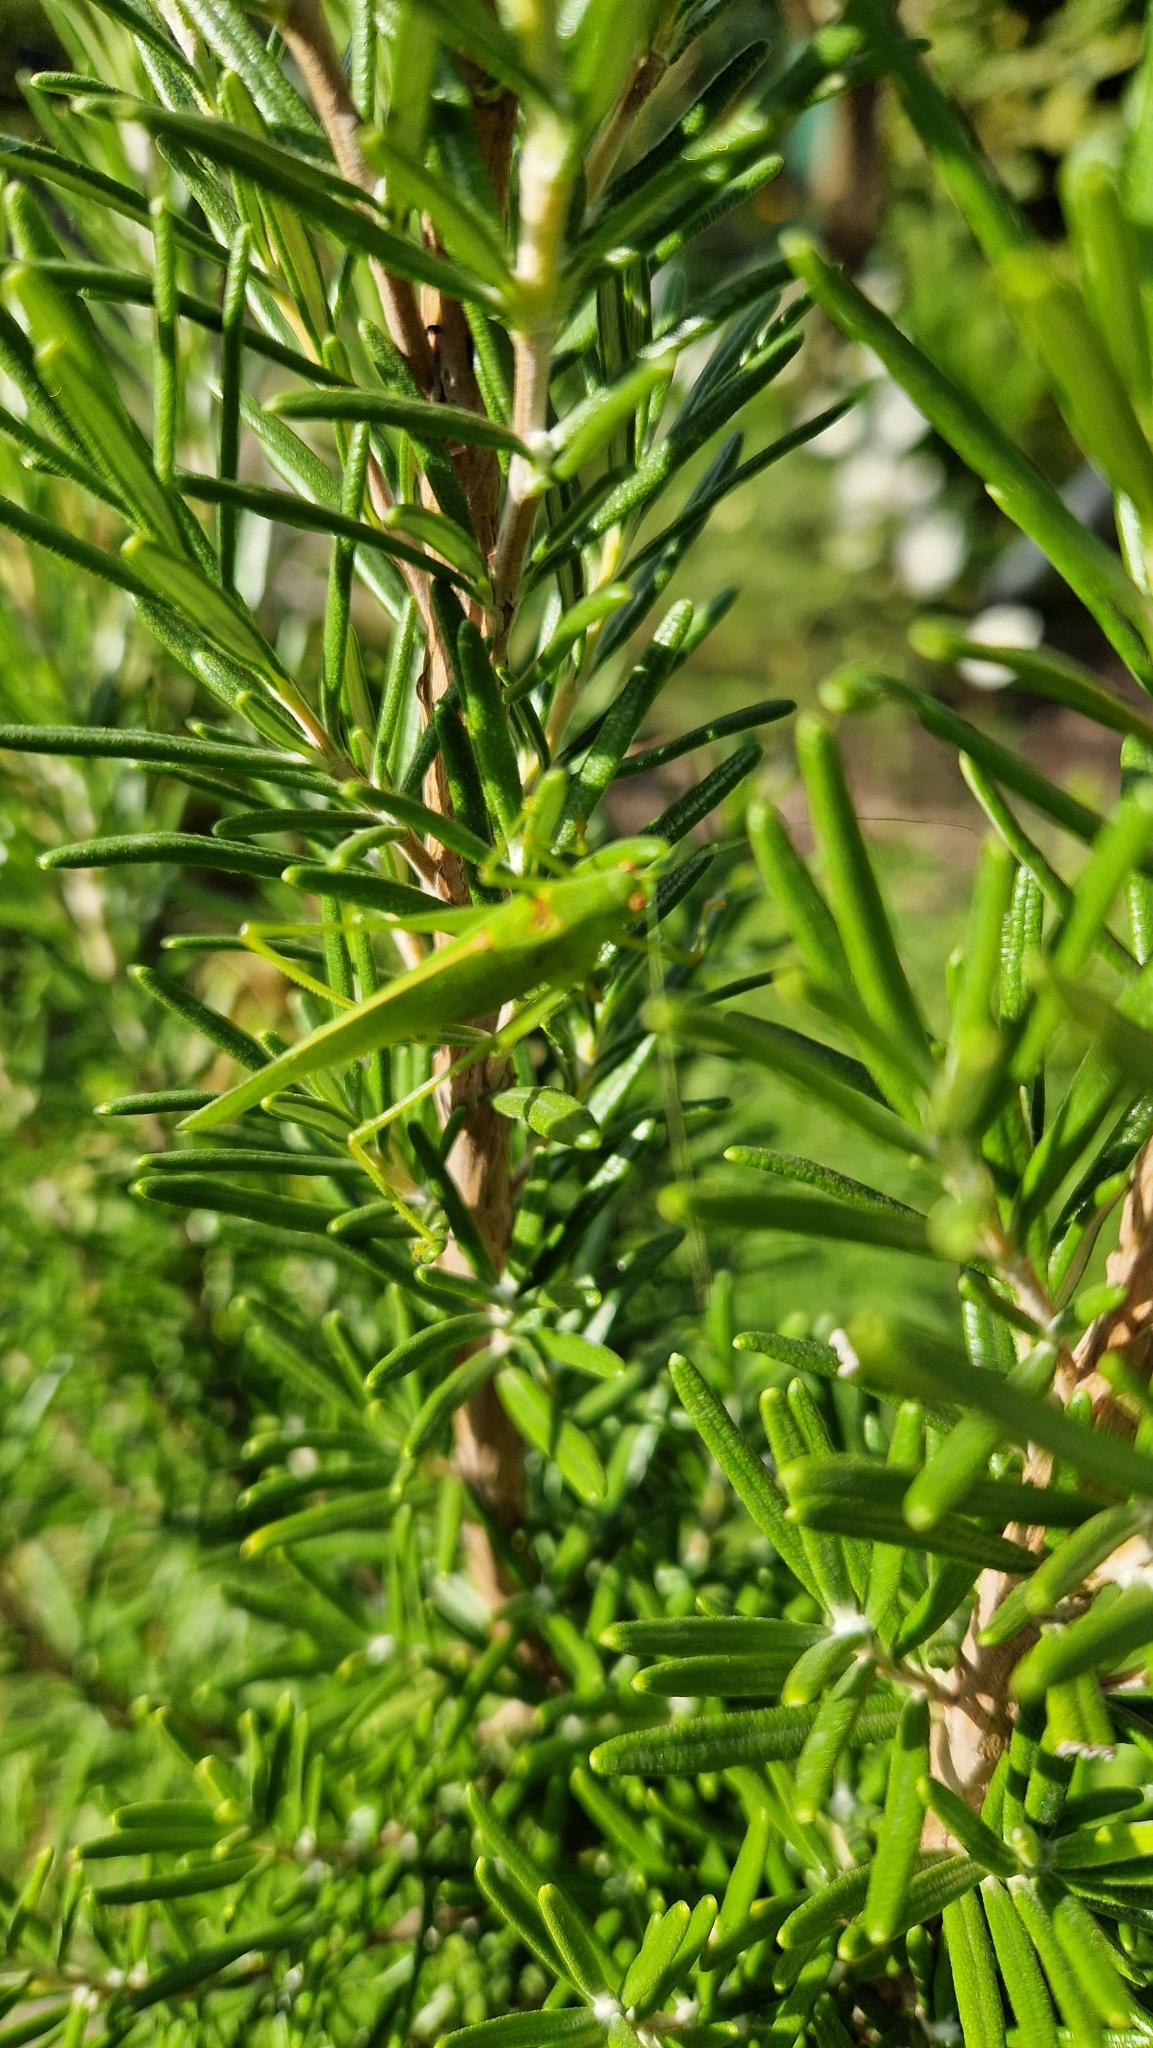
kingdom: Animalia
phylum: Arthropoda
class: Insecta
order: Orthoptera
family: Tettigoniidae
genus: Phaneroptera
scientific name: Phaneroptera nana
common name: Southern sickle bush-cricket
